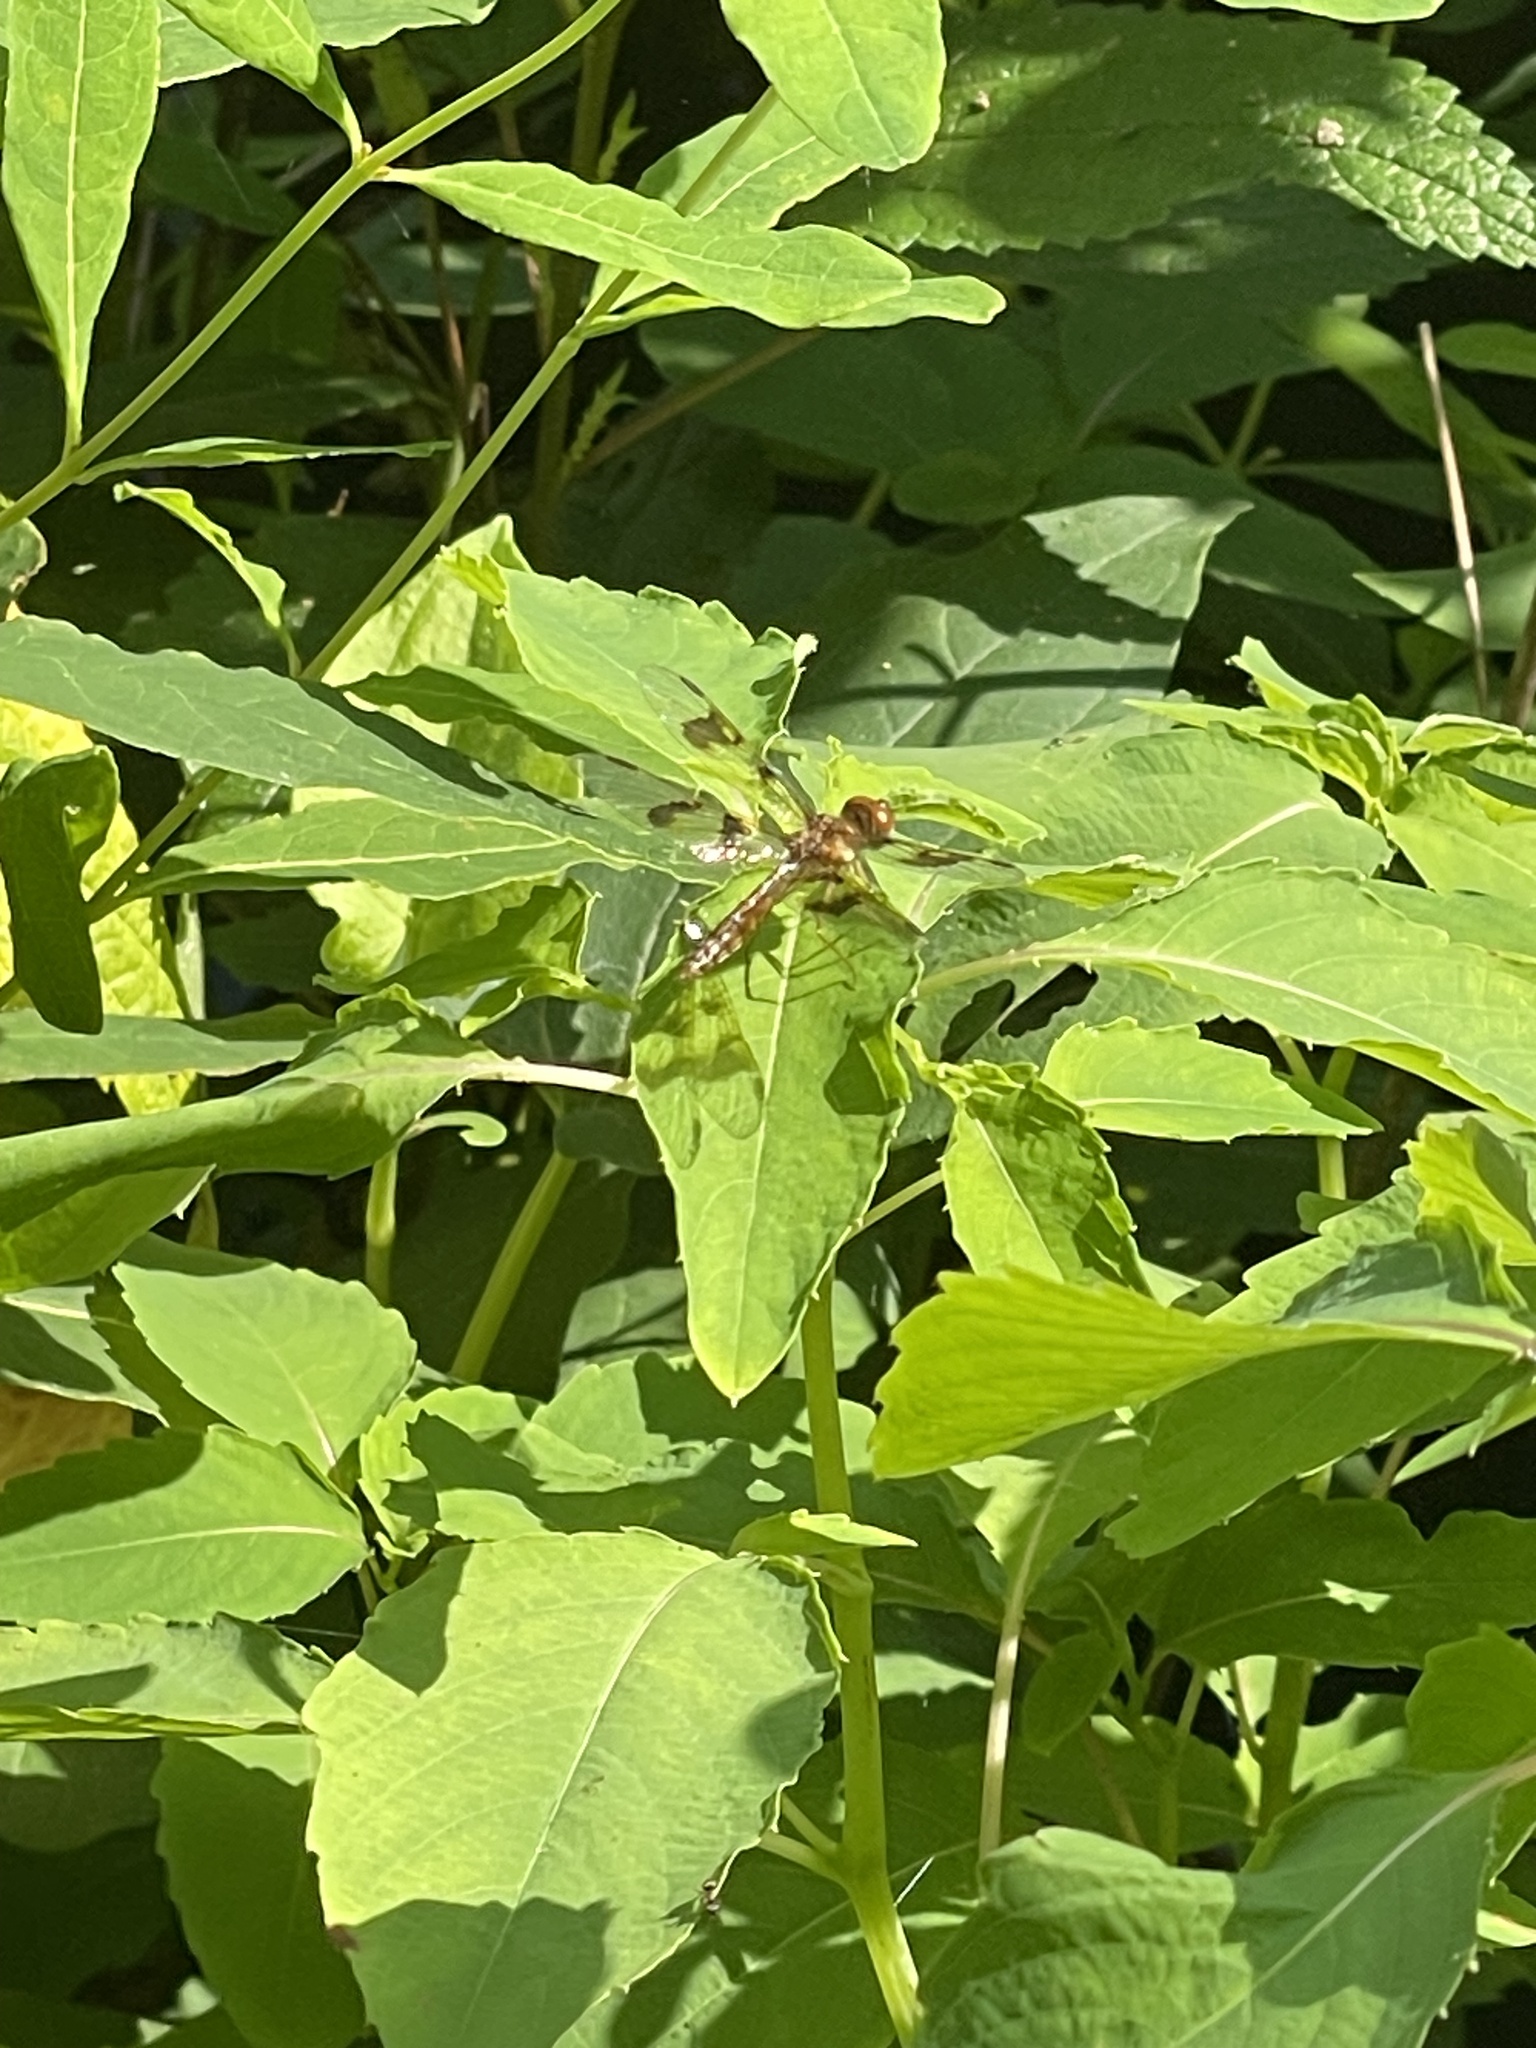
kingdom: Animalia
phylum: Arthropoda
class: Insecta
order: Odonata
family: Libellulidae
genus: Perithemis
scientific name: Perithemis tenera
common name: Eastern amberwing
